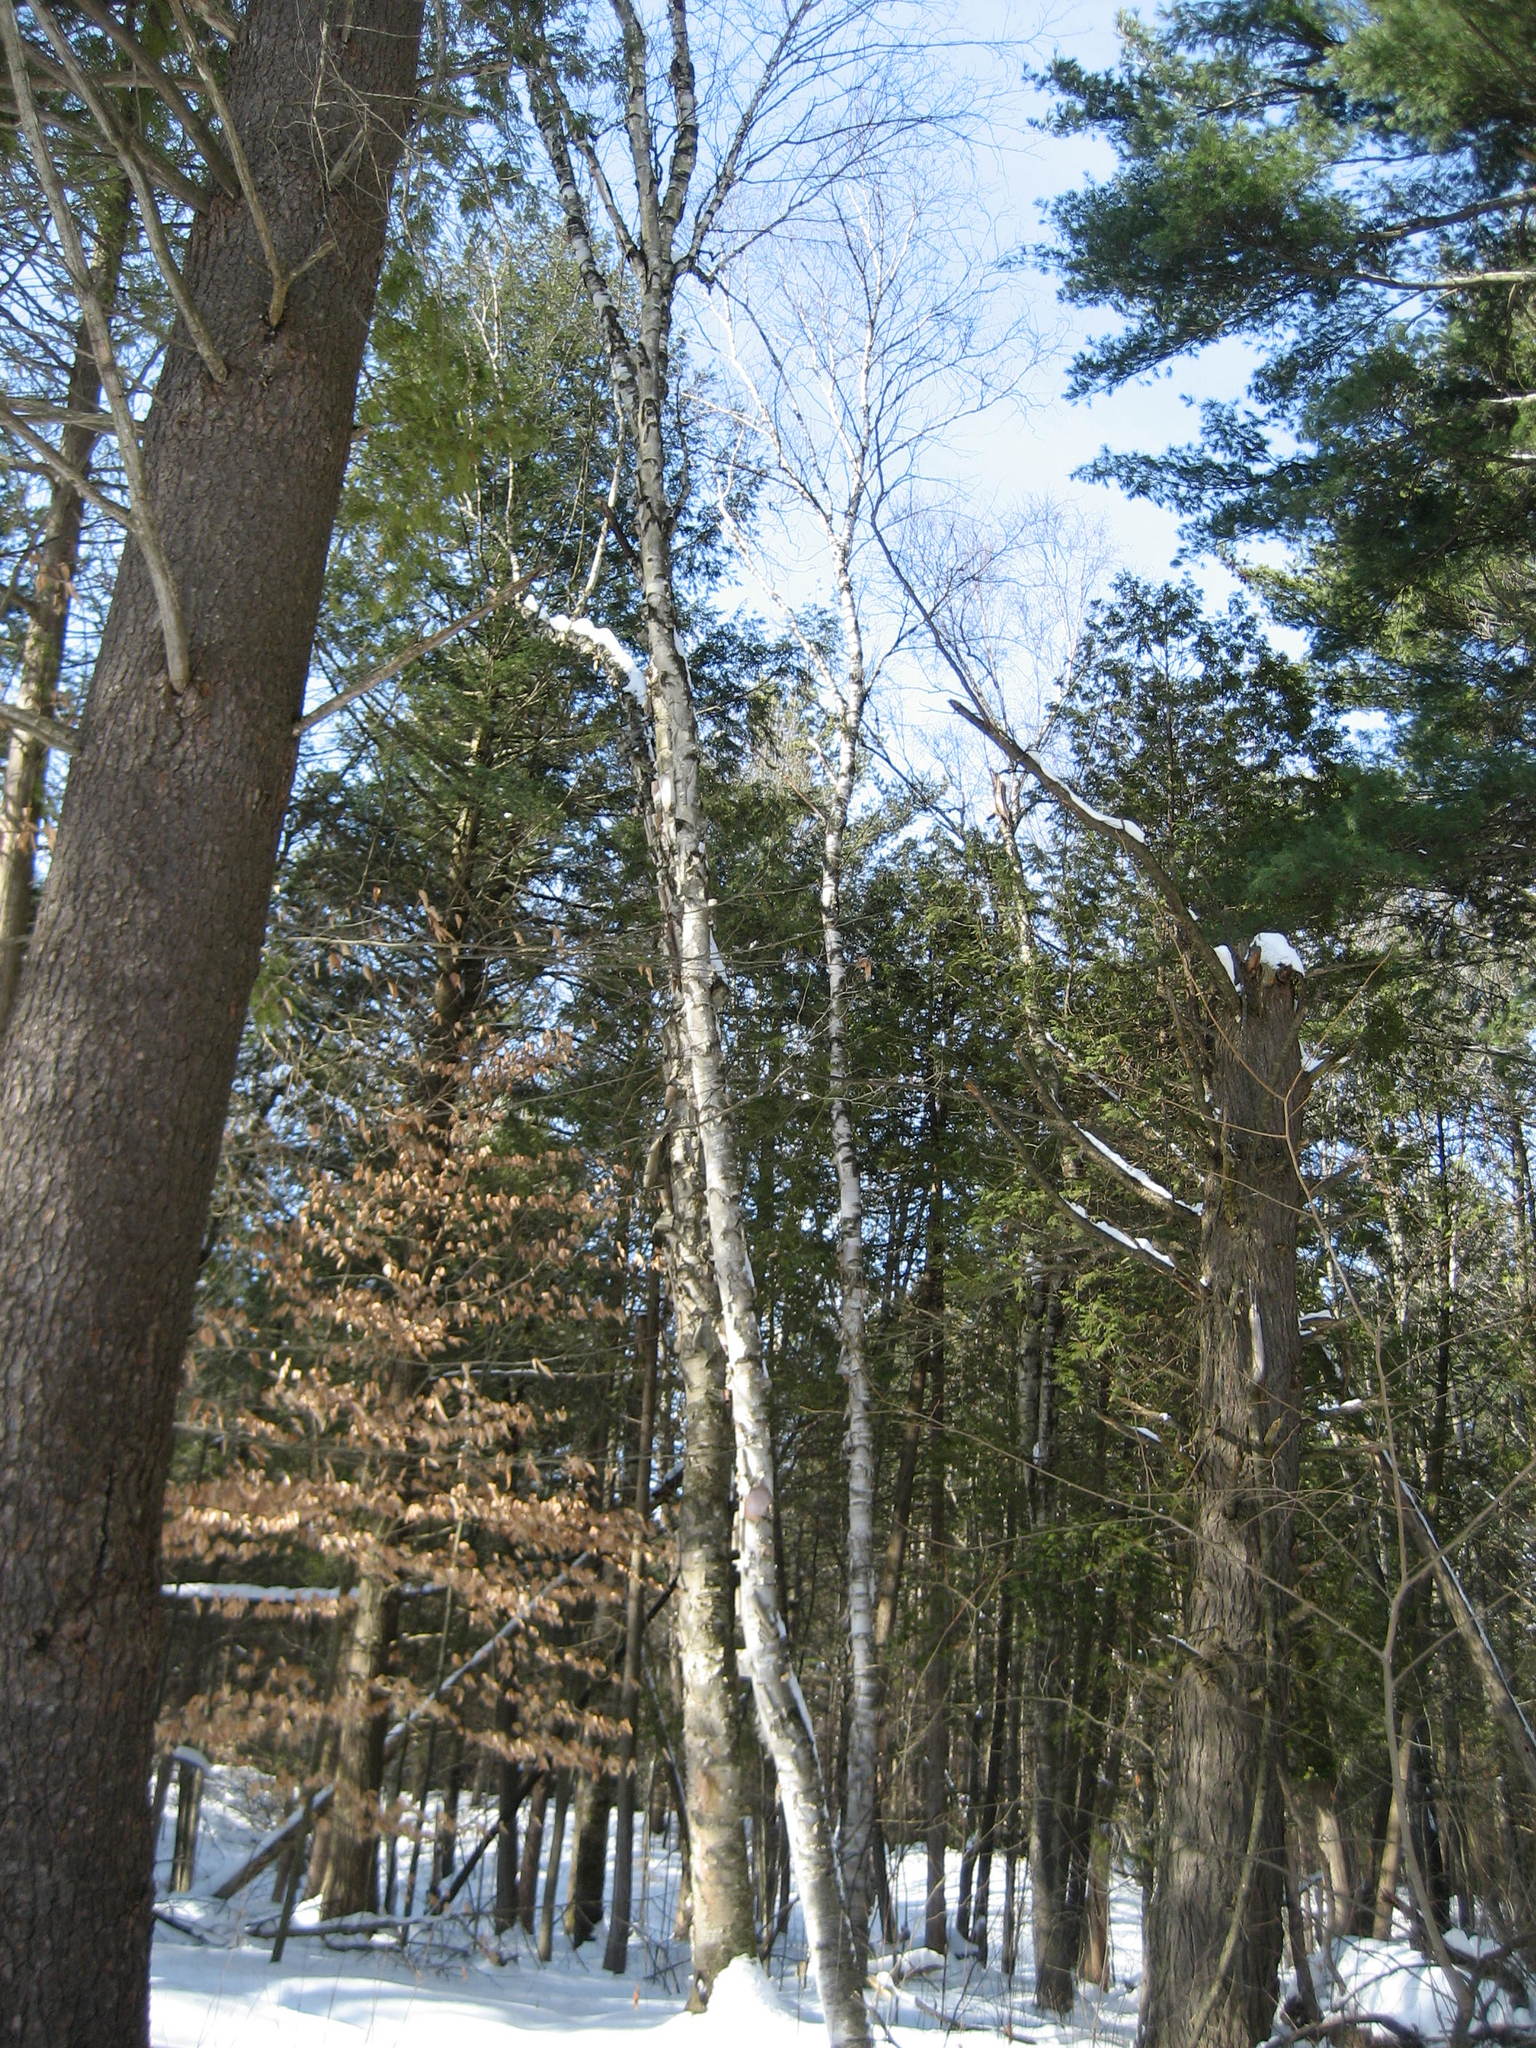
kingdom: Plantae
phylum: Tracheophyta
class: Magnoliopsida
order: Fagales
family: Betulaceae
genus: Betula
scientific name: Betula papyrifera
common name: Paper birch
